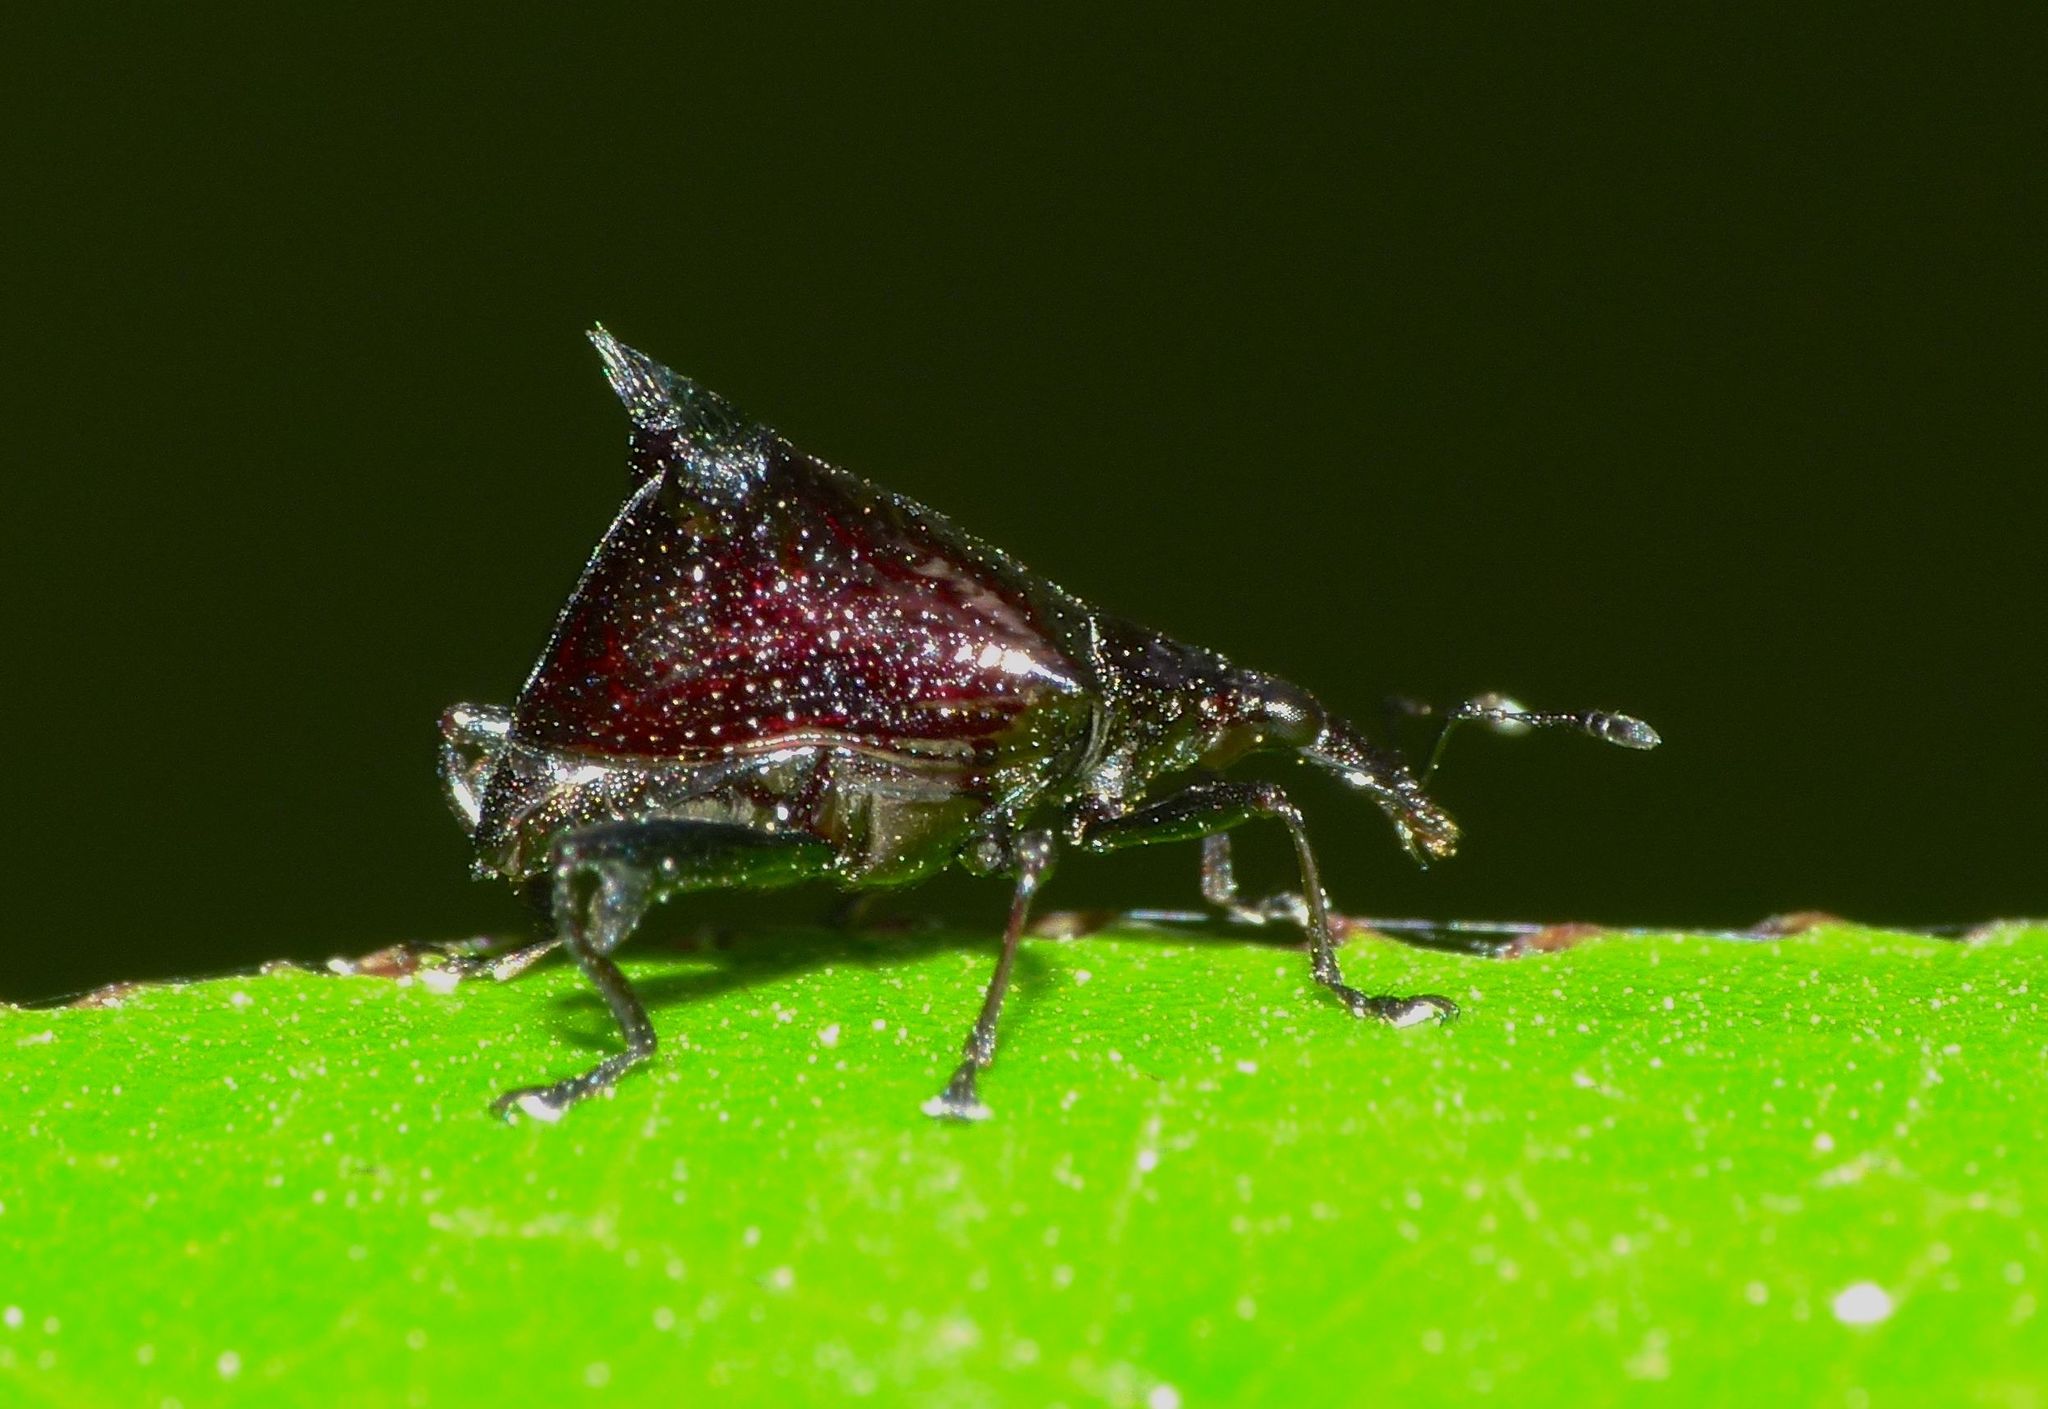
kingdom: Animalia
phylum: Arthropoda
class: Insecta
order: Coleoptera
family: Curculionidae
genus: Scolopterus
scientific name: Scolopterus penicillatus
